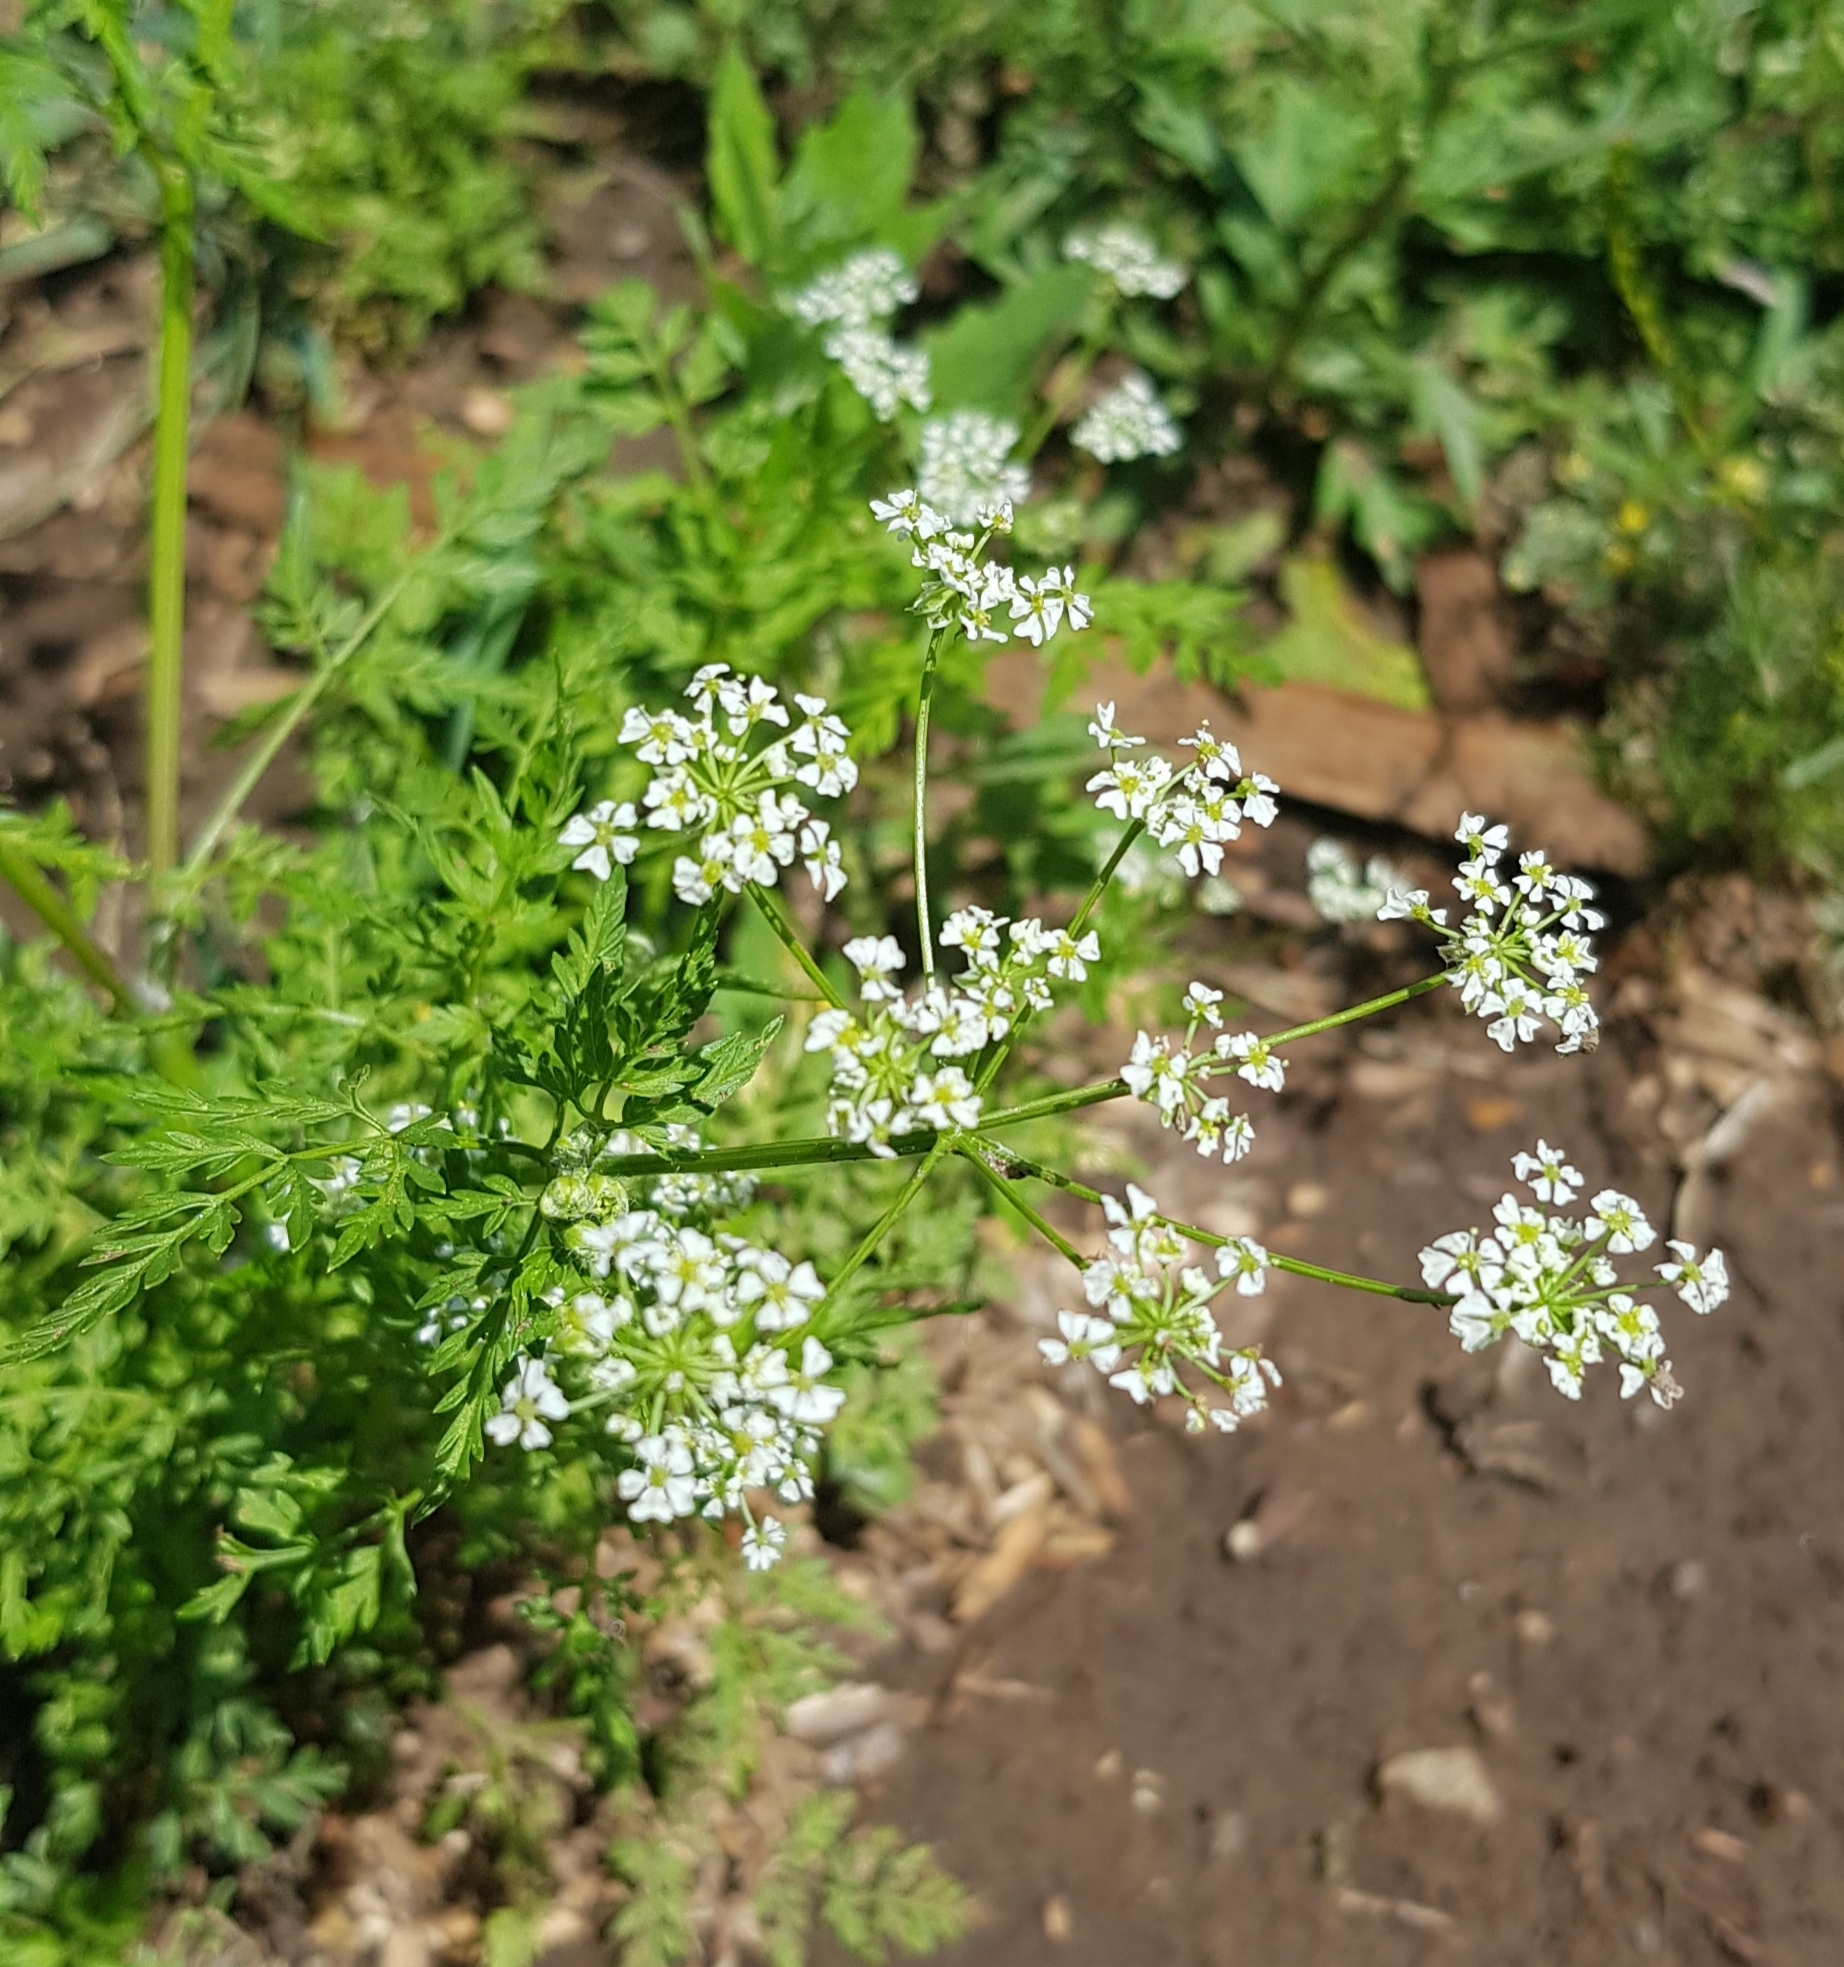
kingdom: Plantae
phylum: Tracheophyta
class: Magnoliopsida
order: Apiales
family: Apiaceae
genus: Sphallerocarpus
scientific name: Sphallerocarpus gracilis
